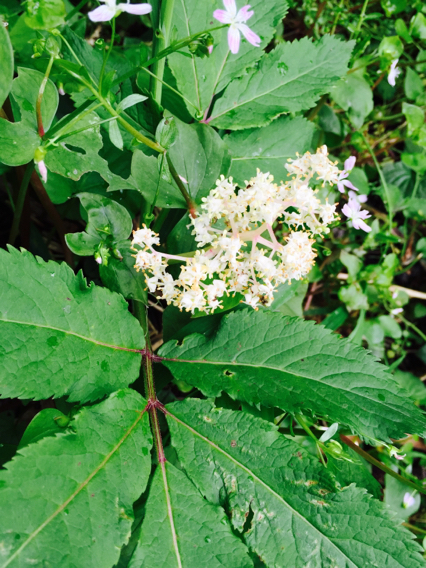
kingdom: Plantae
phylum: Tracheophyta
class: Magnoliopsida
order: Dipsacales
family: Viburnaceae
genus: Sambucus
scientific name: Sambucus racemosa
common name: Red-berried elder
